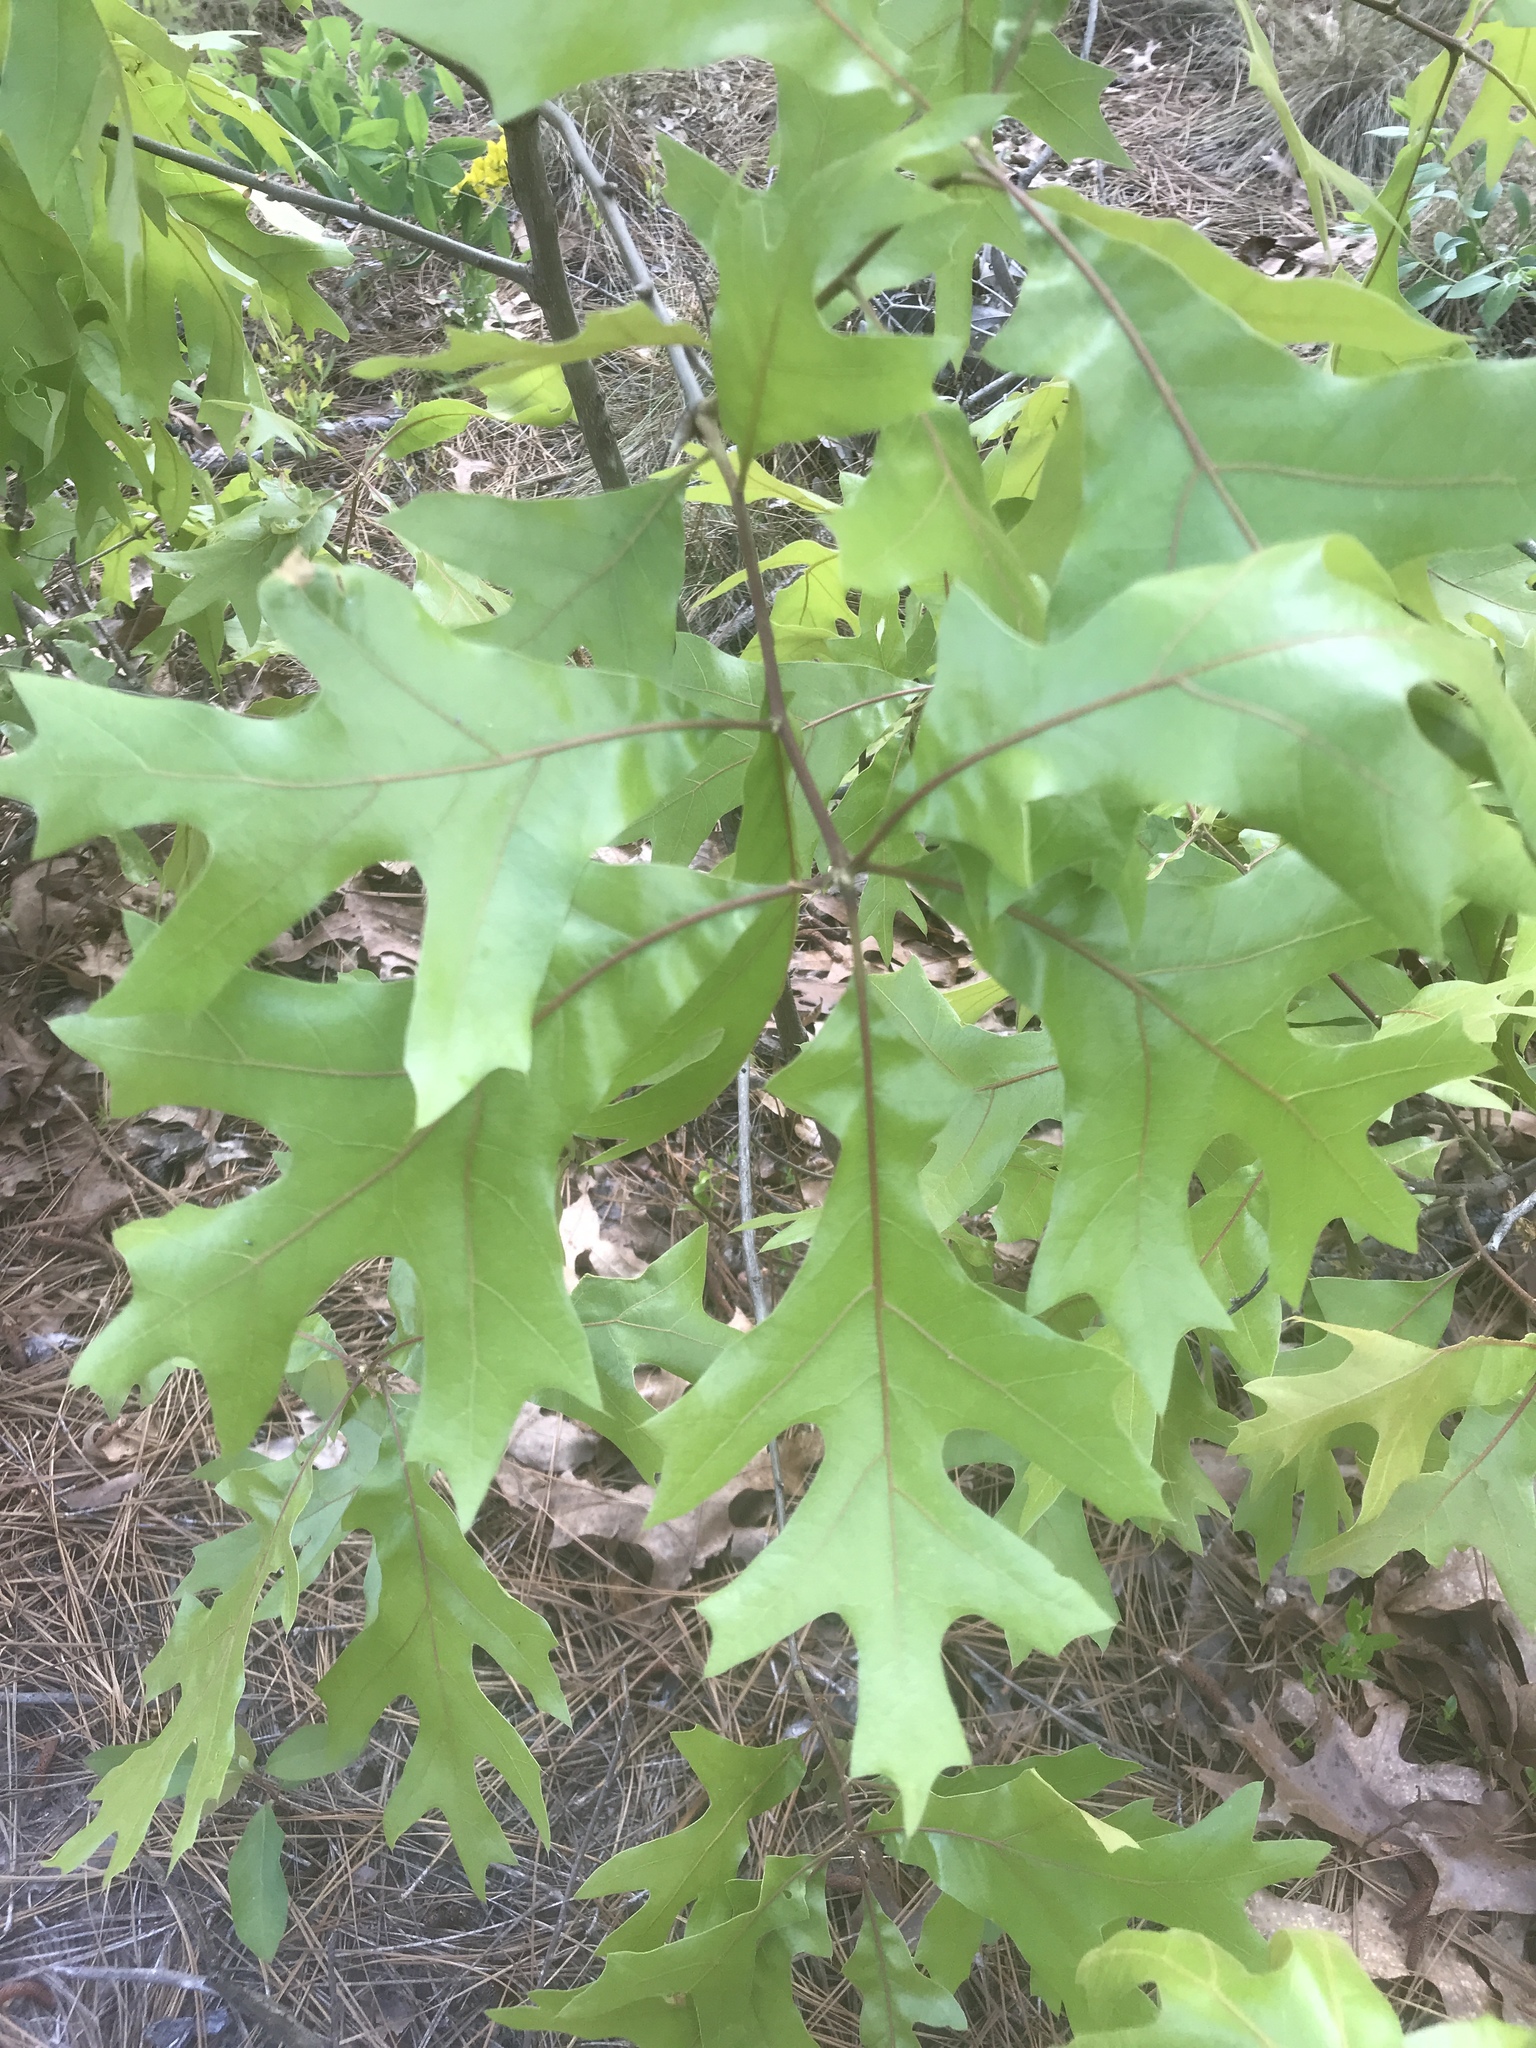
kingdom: Plantae
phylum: Tracheophyta
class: Magnoliopsida
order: Fagales
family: Fagaceae
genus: Quercus
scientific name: Quercus laevis
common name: Turkey oak
